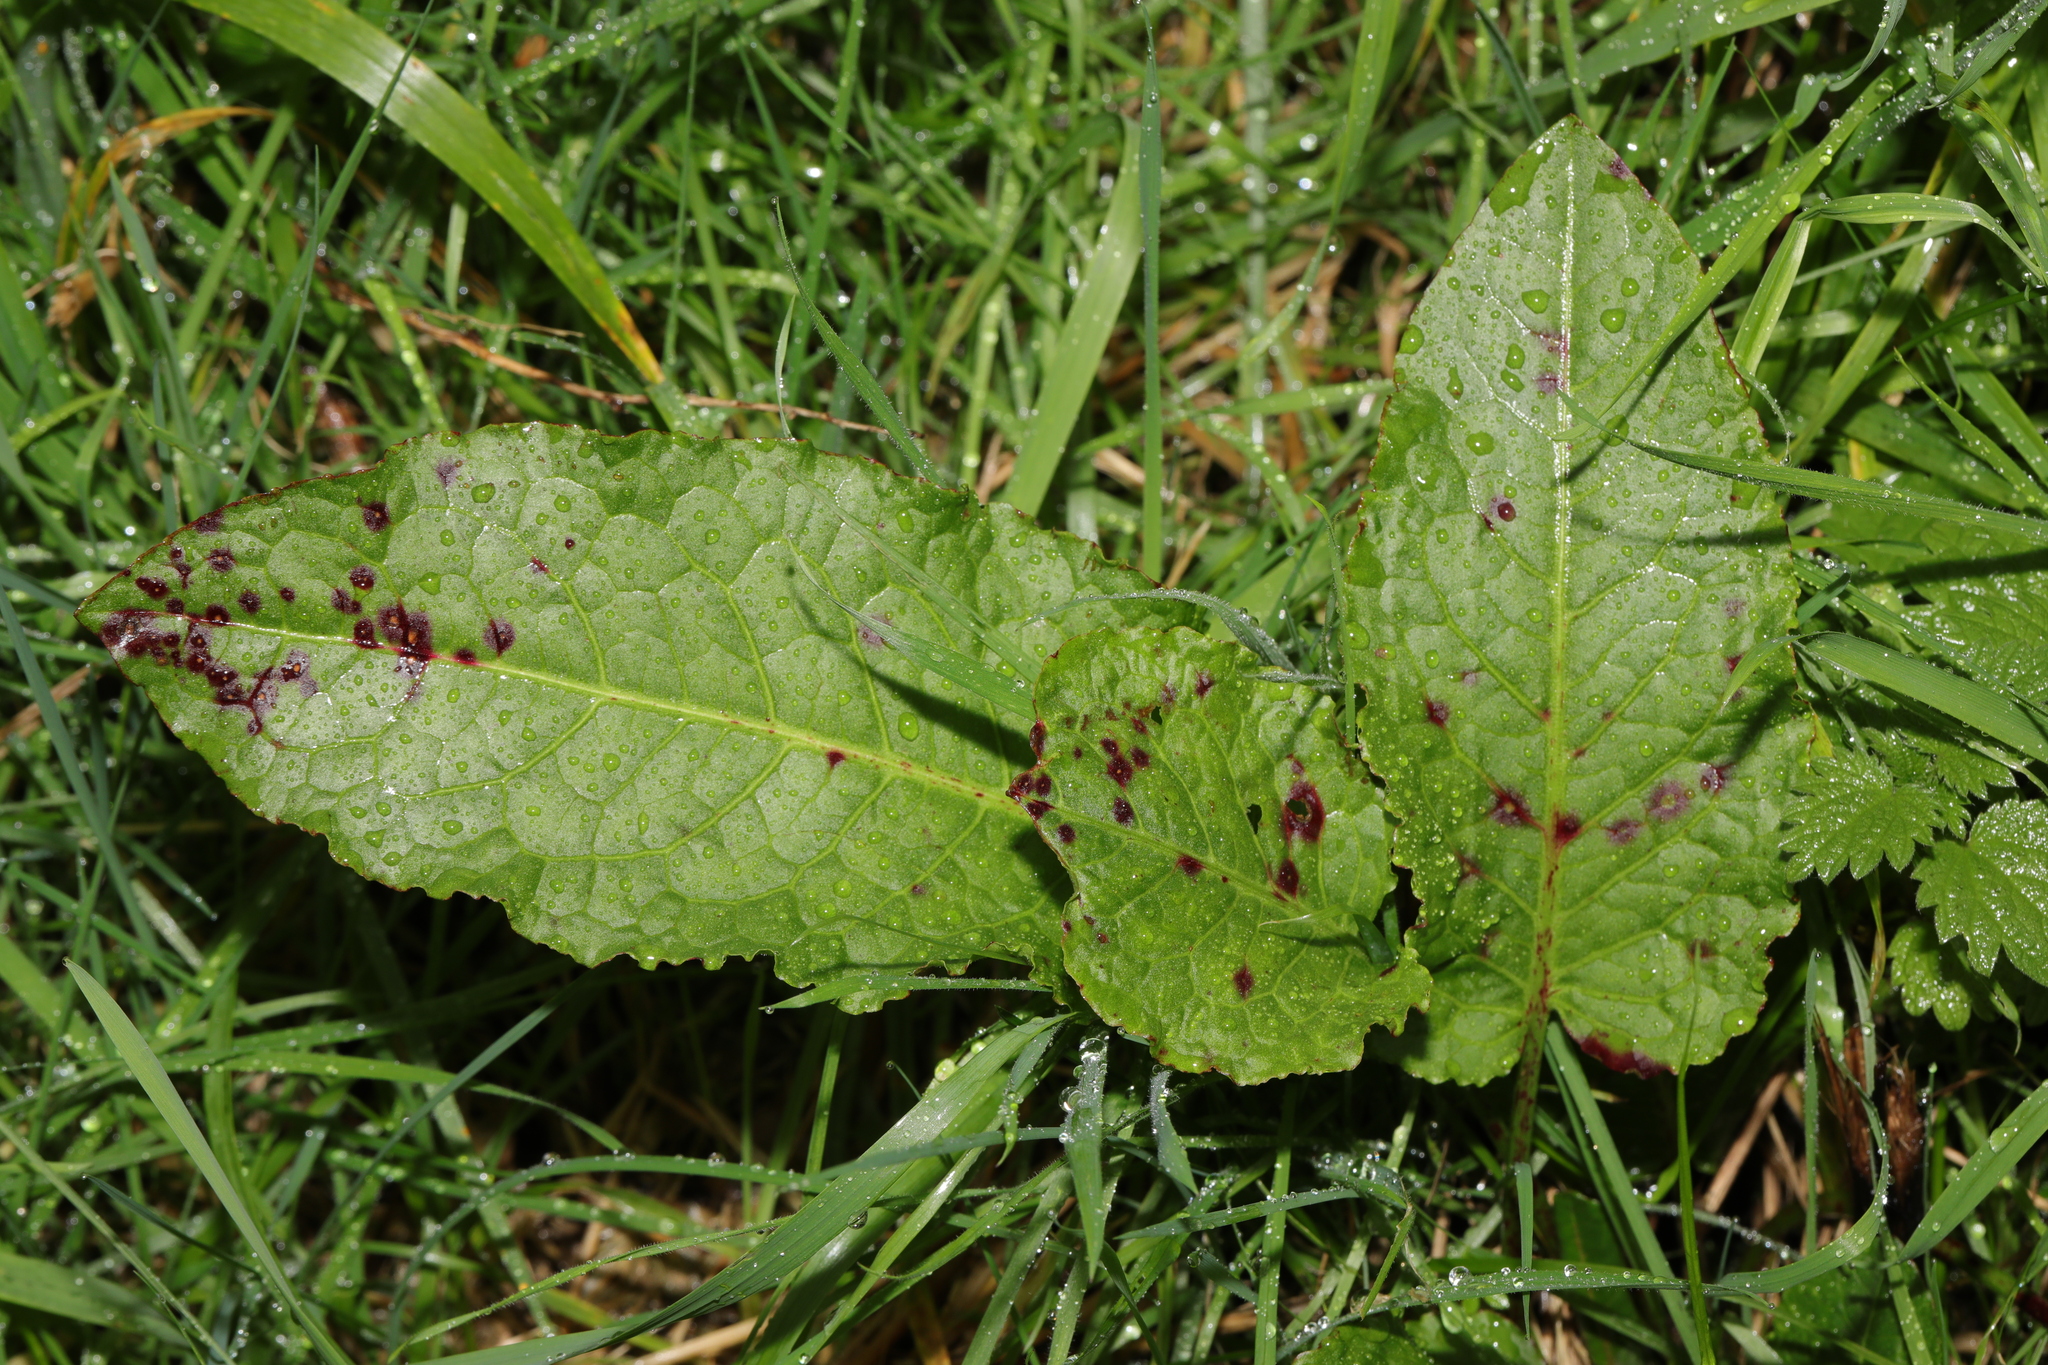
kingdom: Plantae
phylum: Tracheophyta
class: Magnoliopsida
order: Caryophyllales
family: Polygonaceae
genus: Rumex
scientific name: Rumex obtusifolius
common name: Bitter dock
